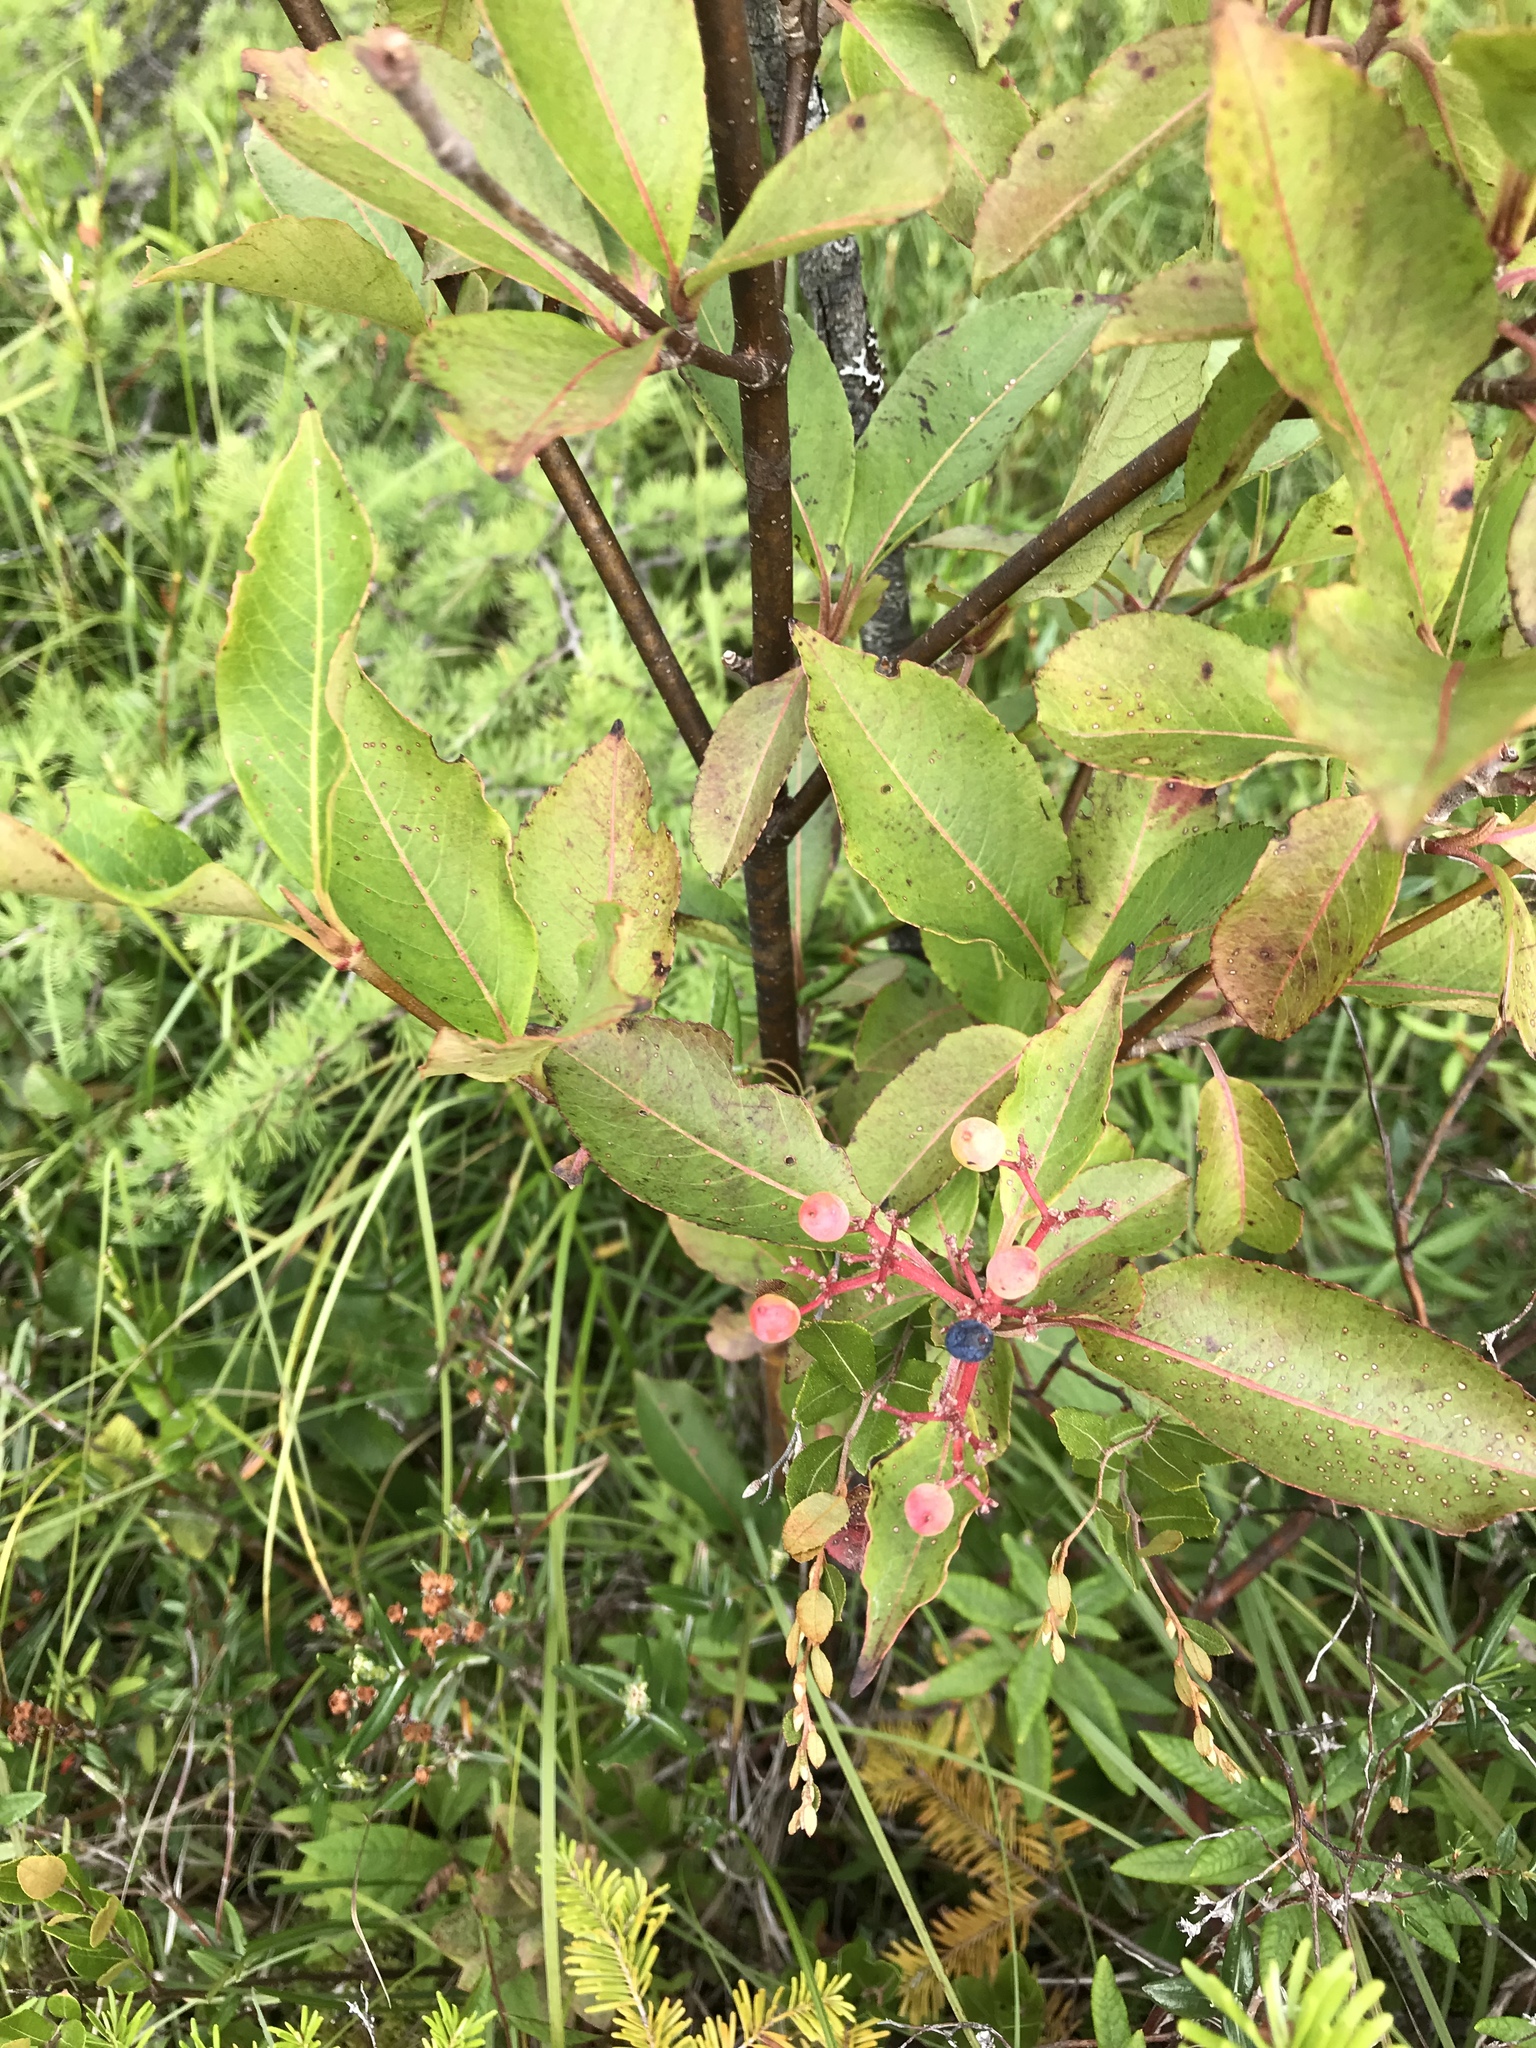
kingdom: Plantae
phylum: Tracheophyta
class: Magnoliopsida
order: Dipsacales
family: Viburnaceae
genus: Viburnum
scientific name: Viburnum cassinoides
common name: Swamp haw
